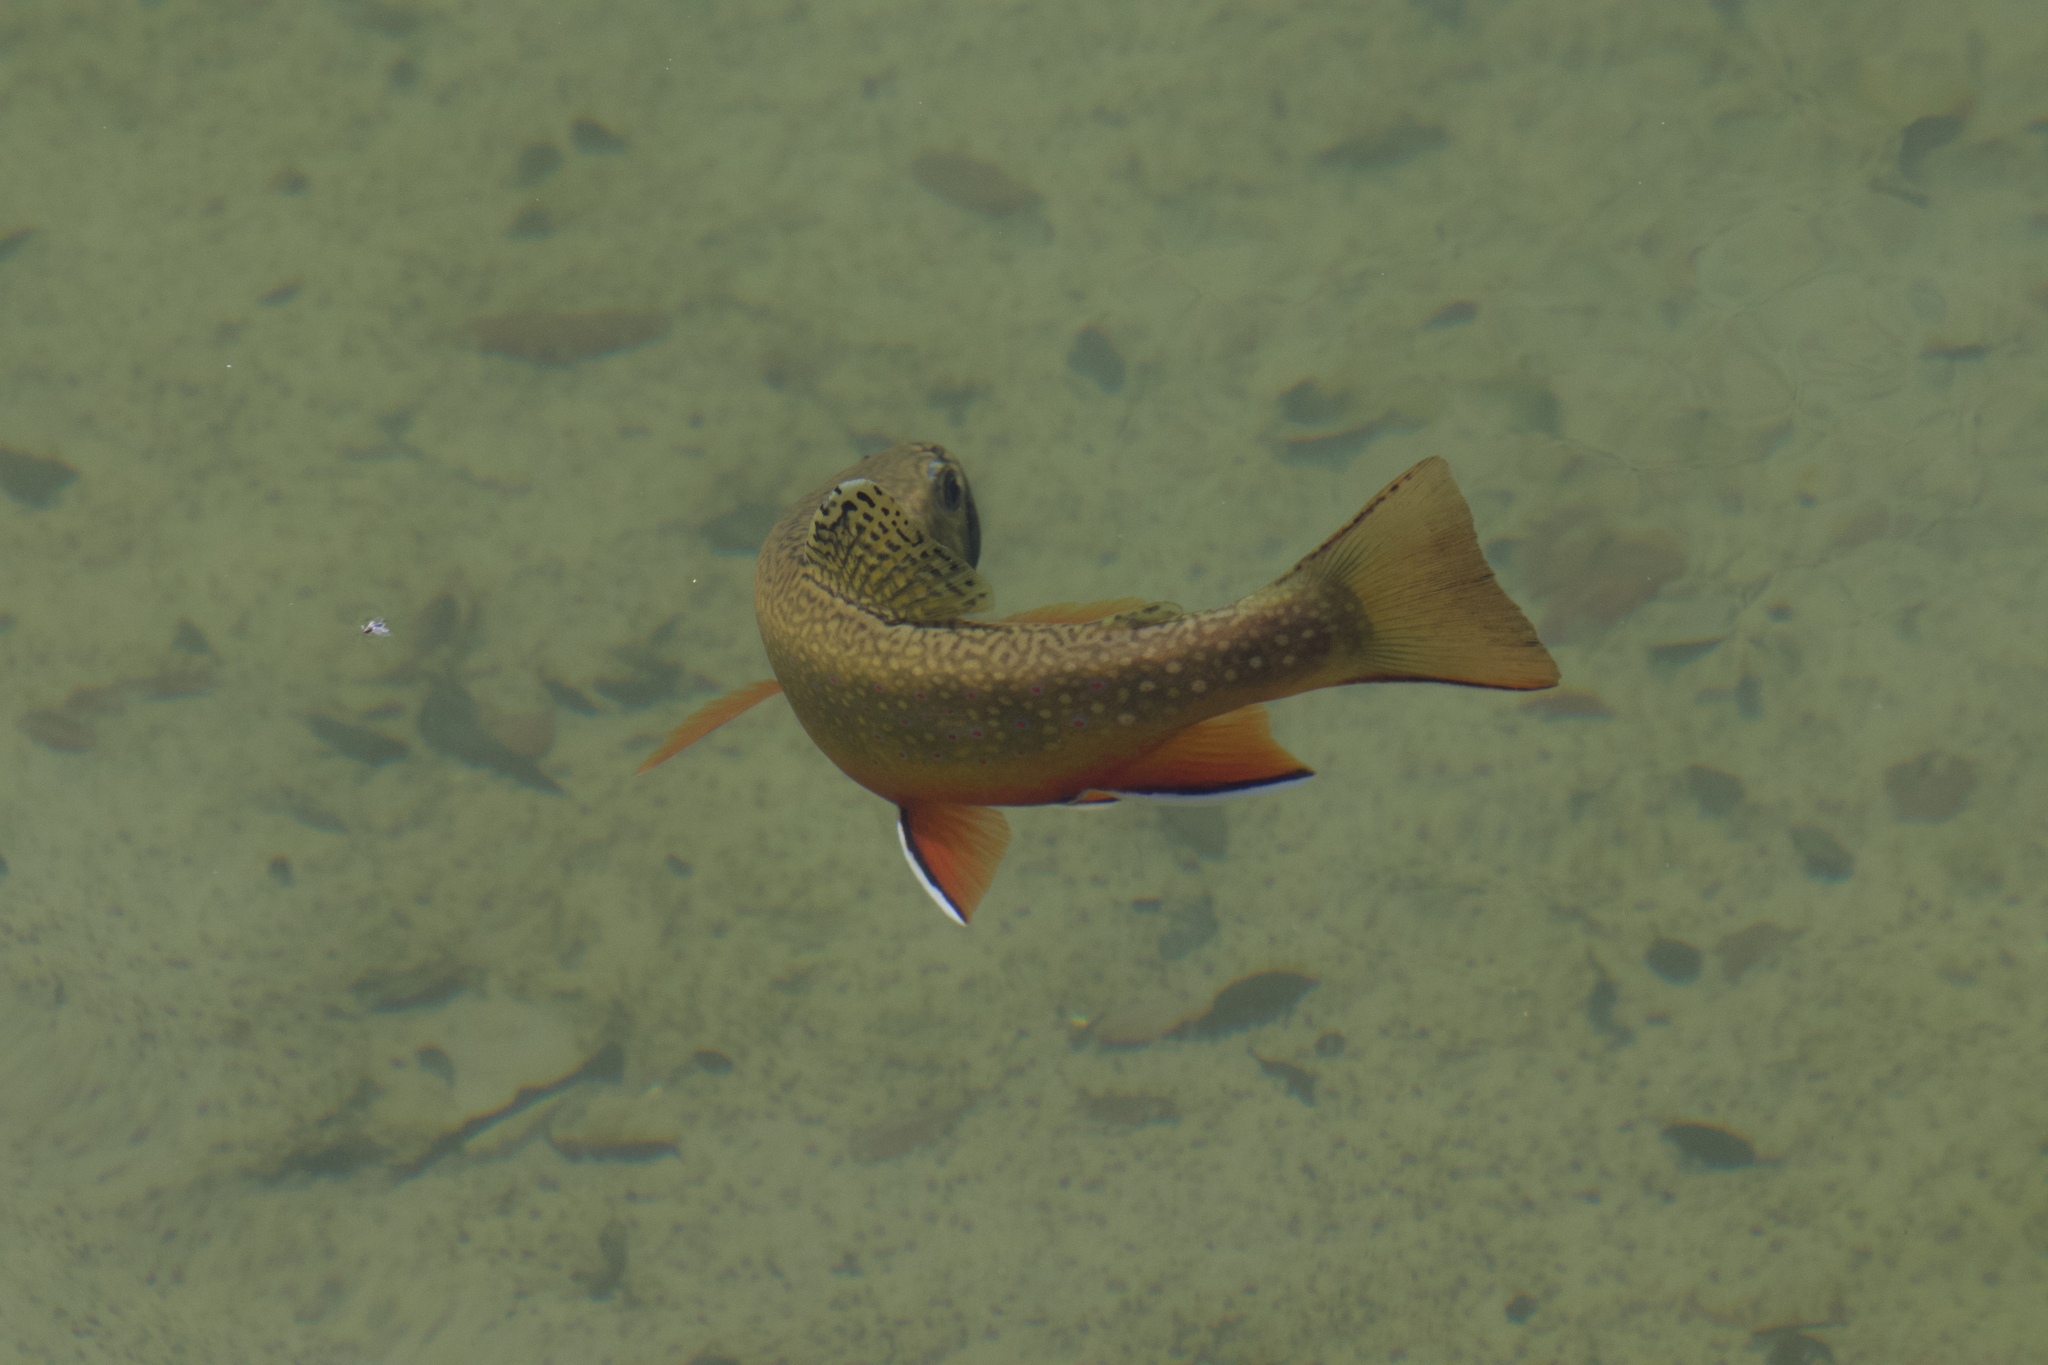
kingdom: Animalia
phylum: Chordata
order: Salmoniformes
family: Salmonidae
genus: Salvelinus
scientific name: Salvelinus fontinalis
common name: Brook trout
